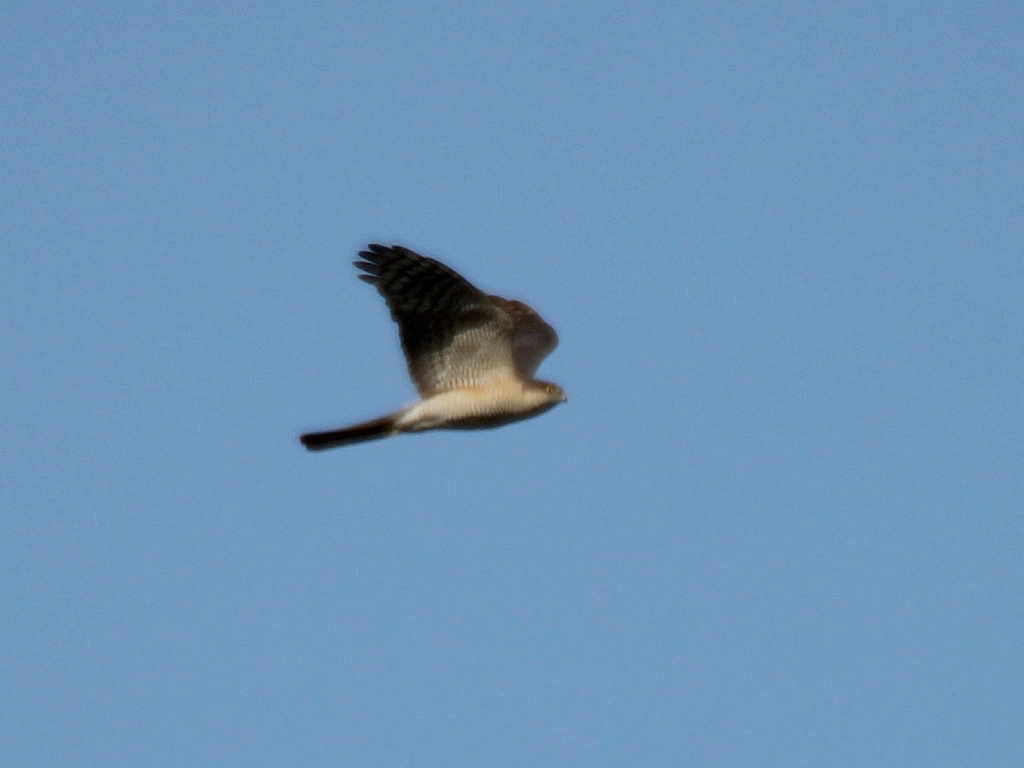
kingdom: Animalia
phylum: Chordata
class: Aves
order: Accipitriformes
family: Accipitridae
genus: Accipiter
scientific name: Accipiter nisus
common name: Eurasian sparrowhawk
